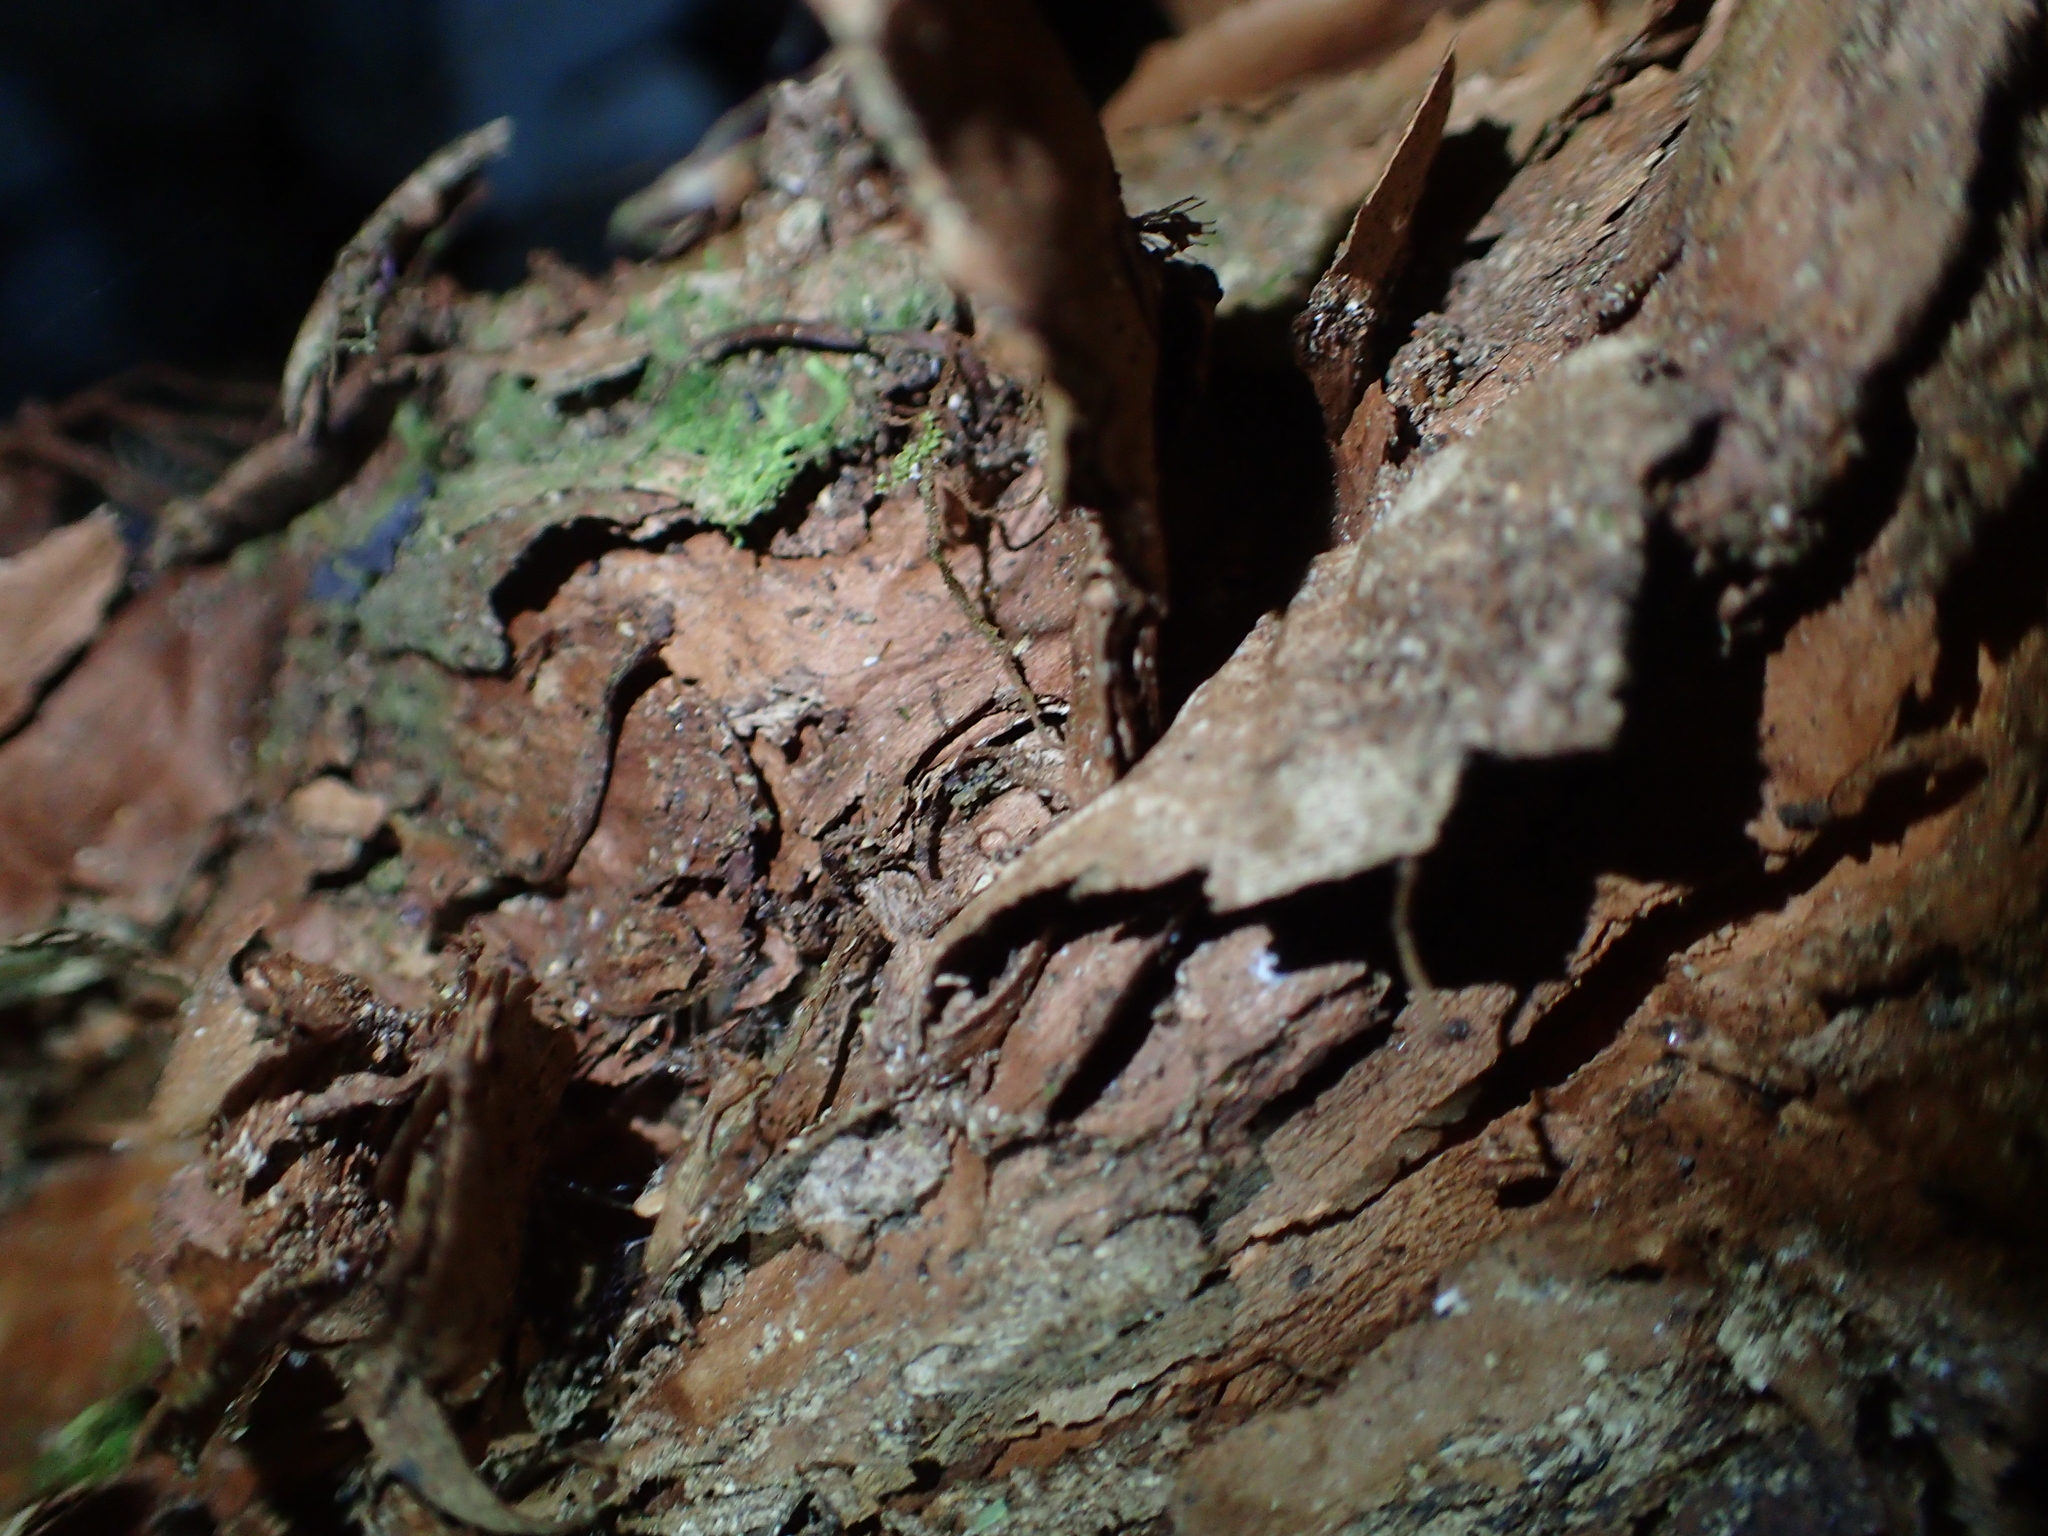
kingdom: Plantae
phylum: Tracheophyta
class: Magnoliopsida
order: Myrtales
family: Onagraceae
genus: Fuchsia
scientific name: Fuchsia excorticata
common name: Tree fuchsia
